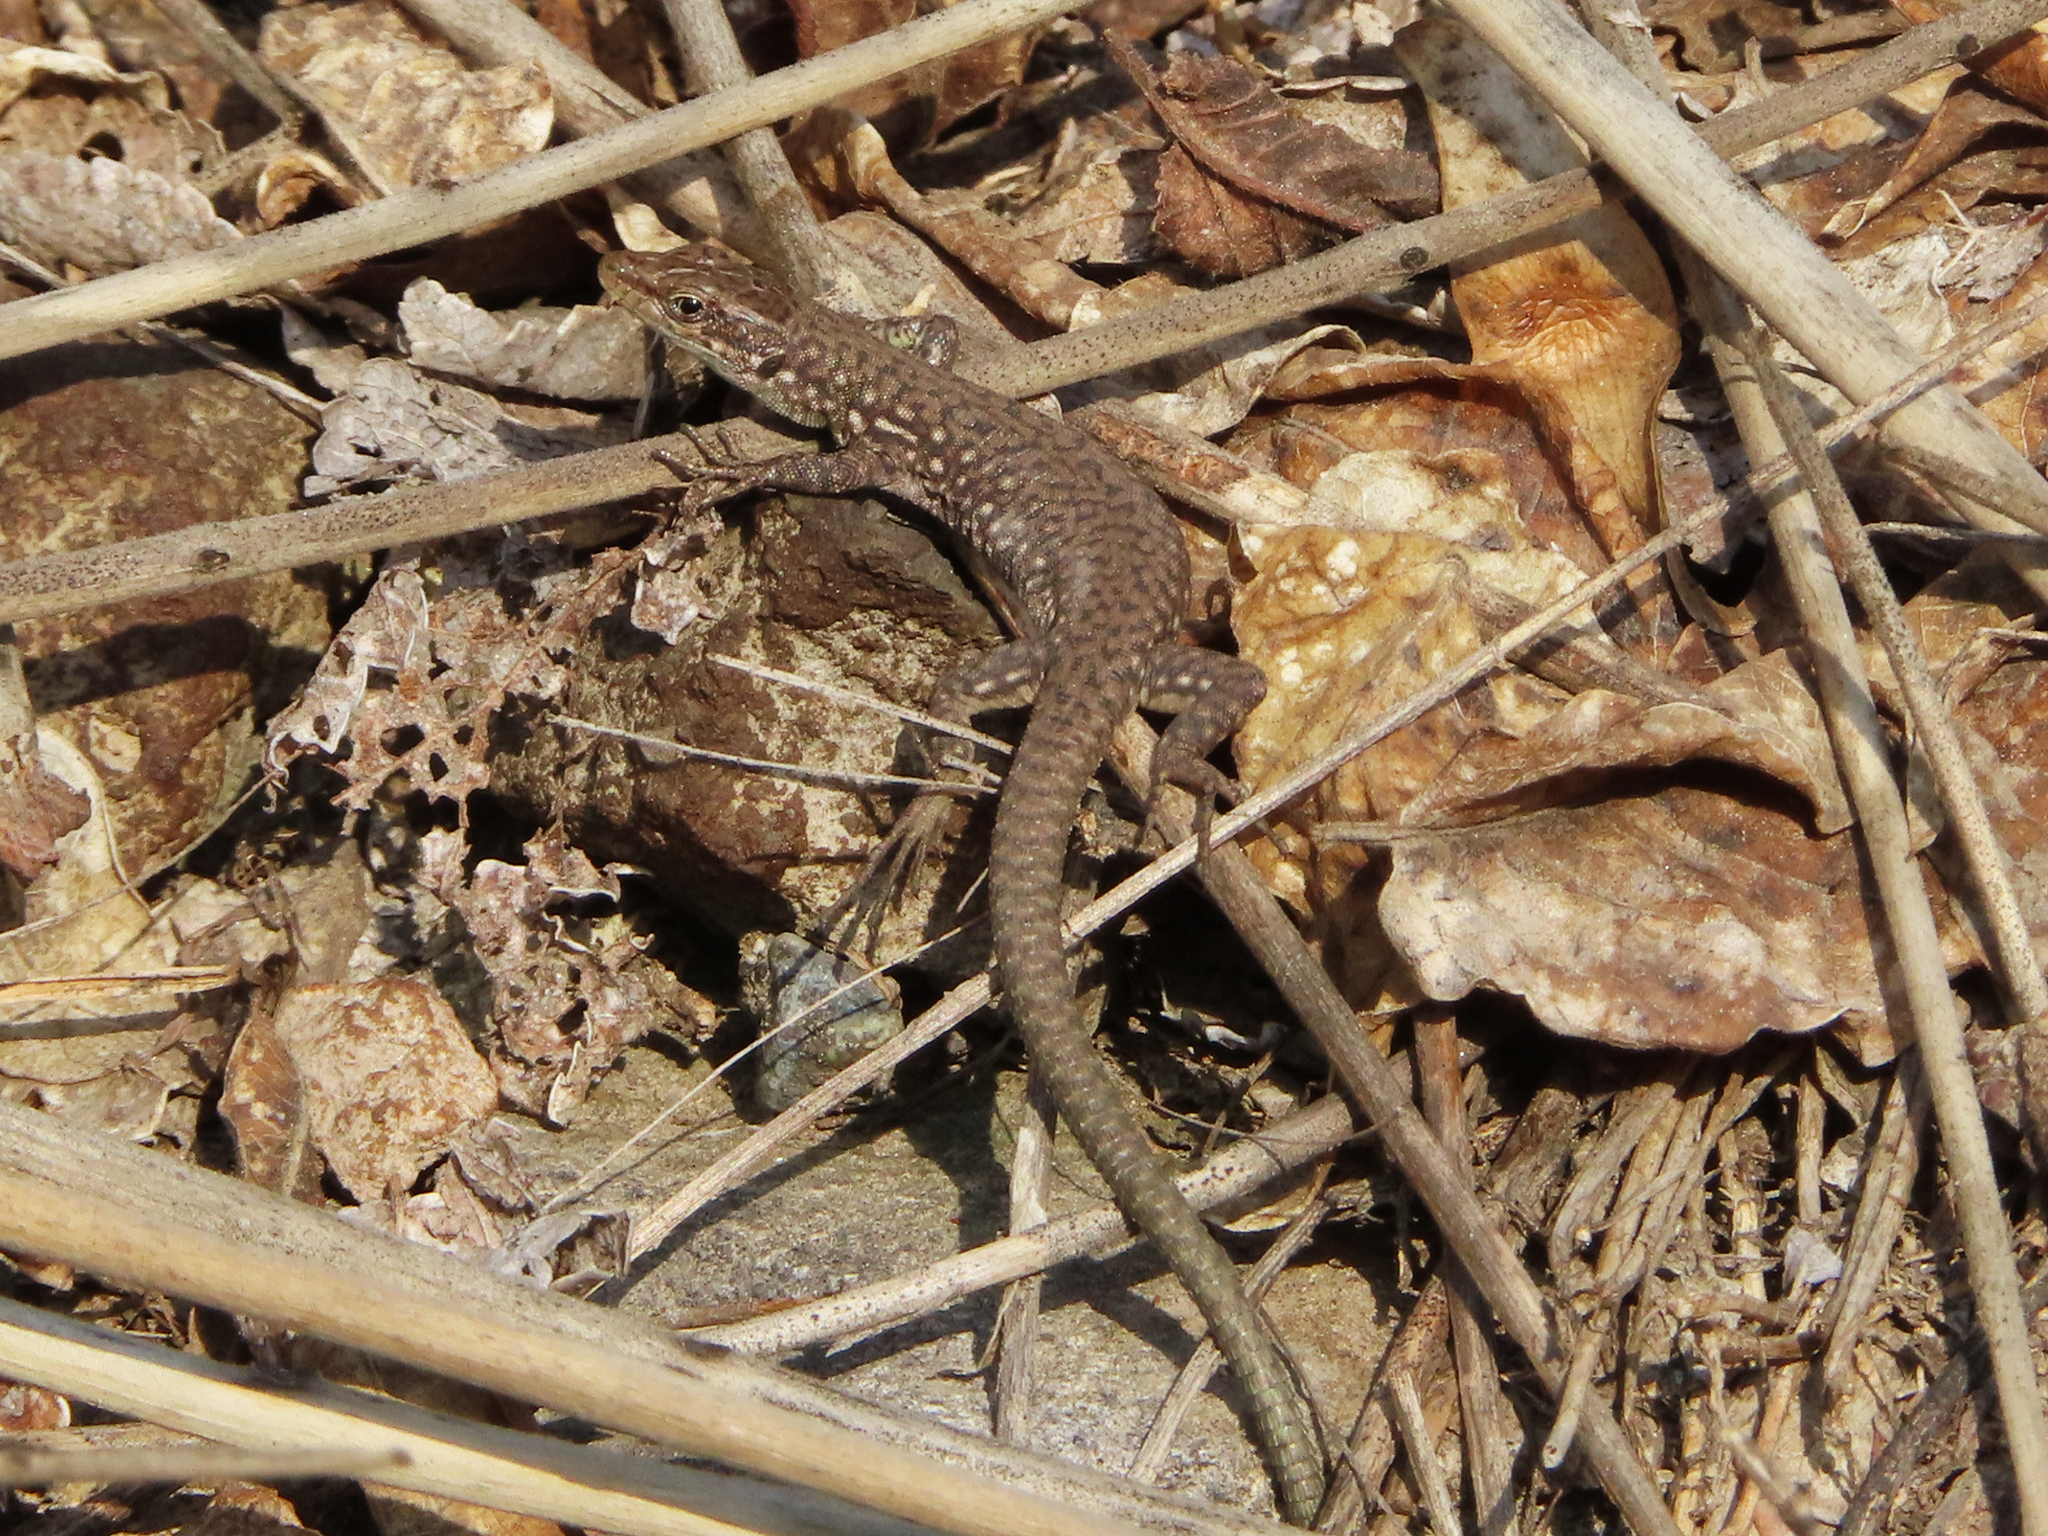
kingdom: Animalia
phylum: Chordata
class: Squamata
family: Lacertidae
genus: Darevskia
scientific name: Darevskia
